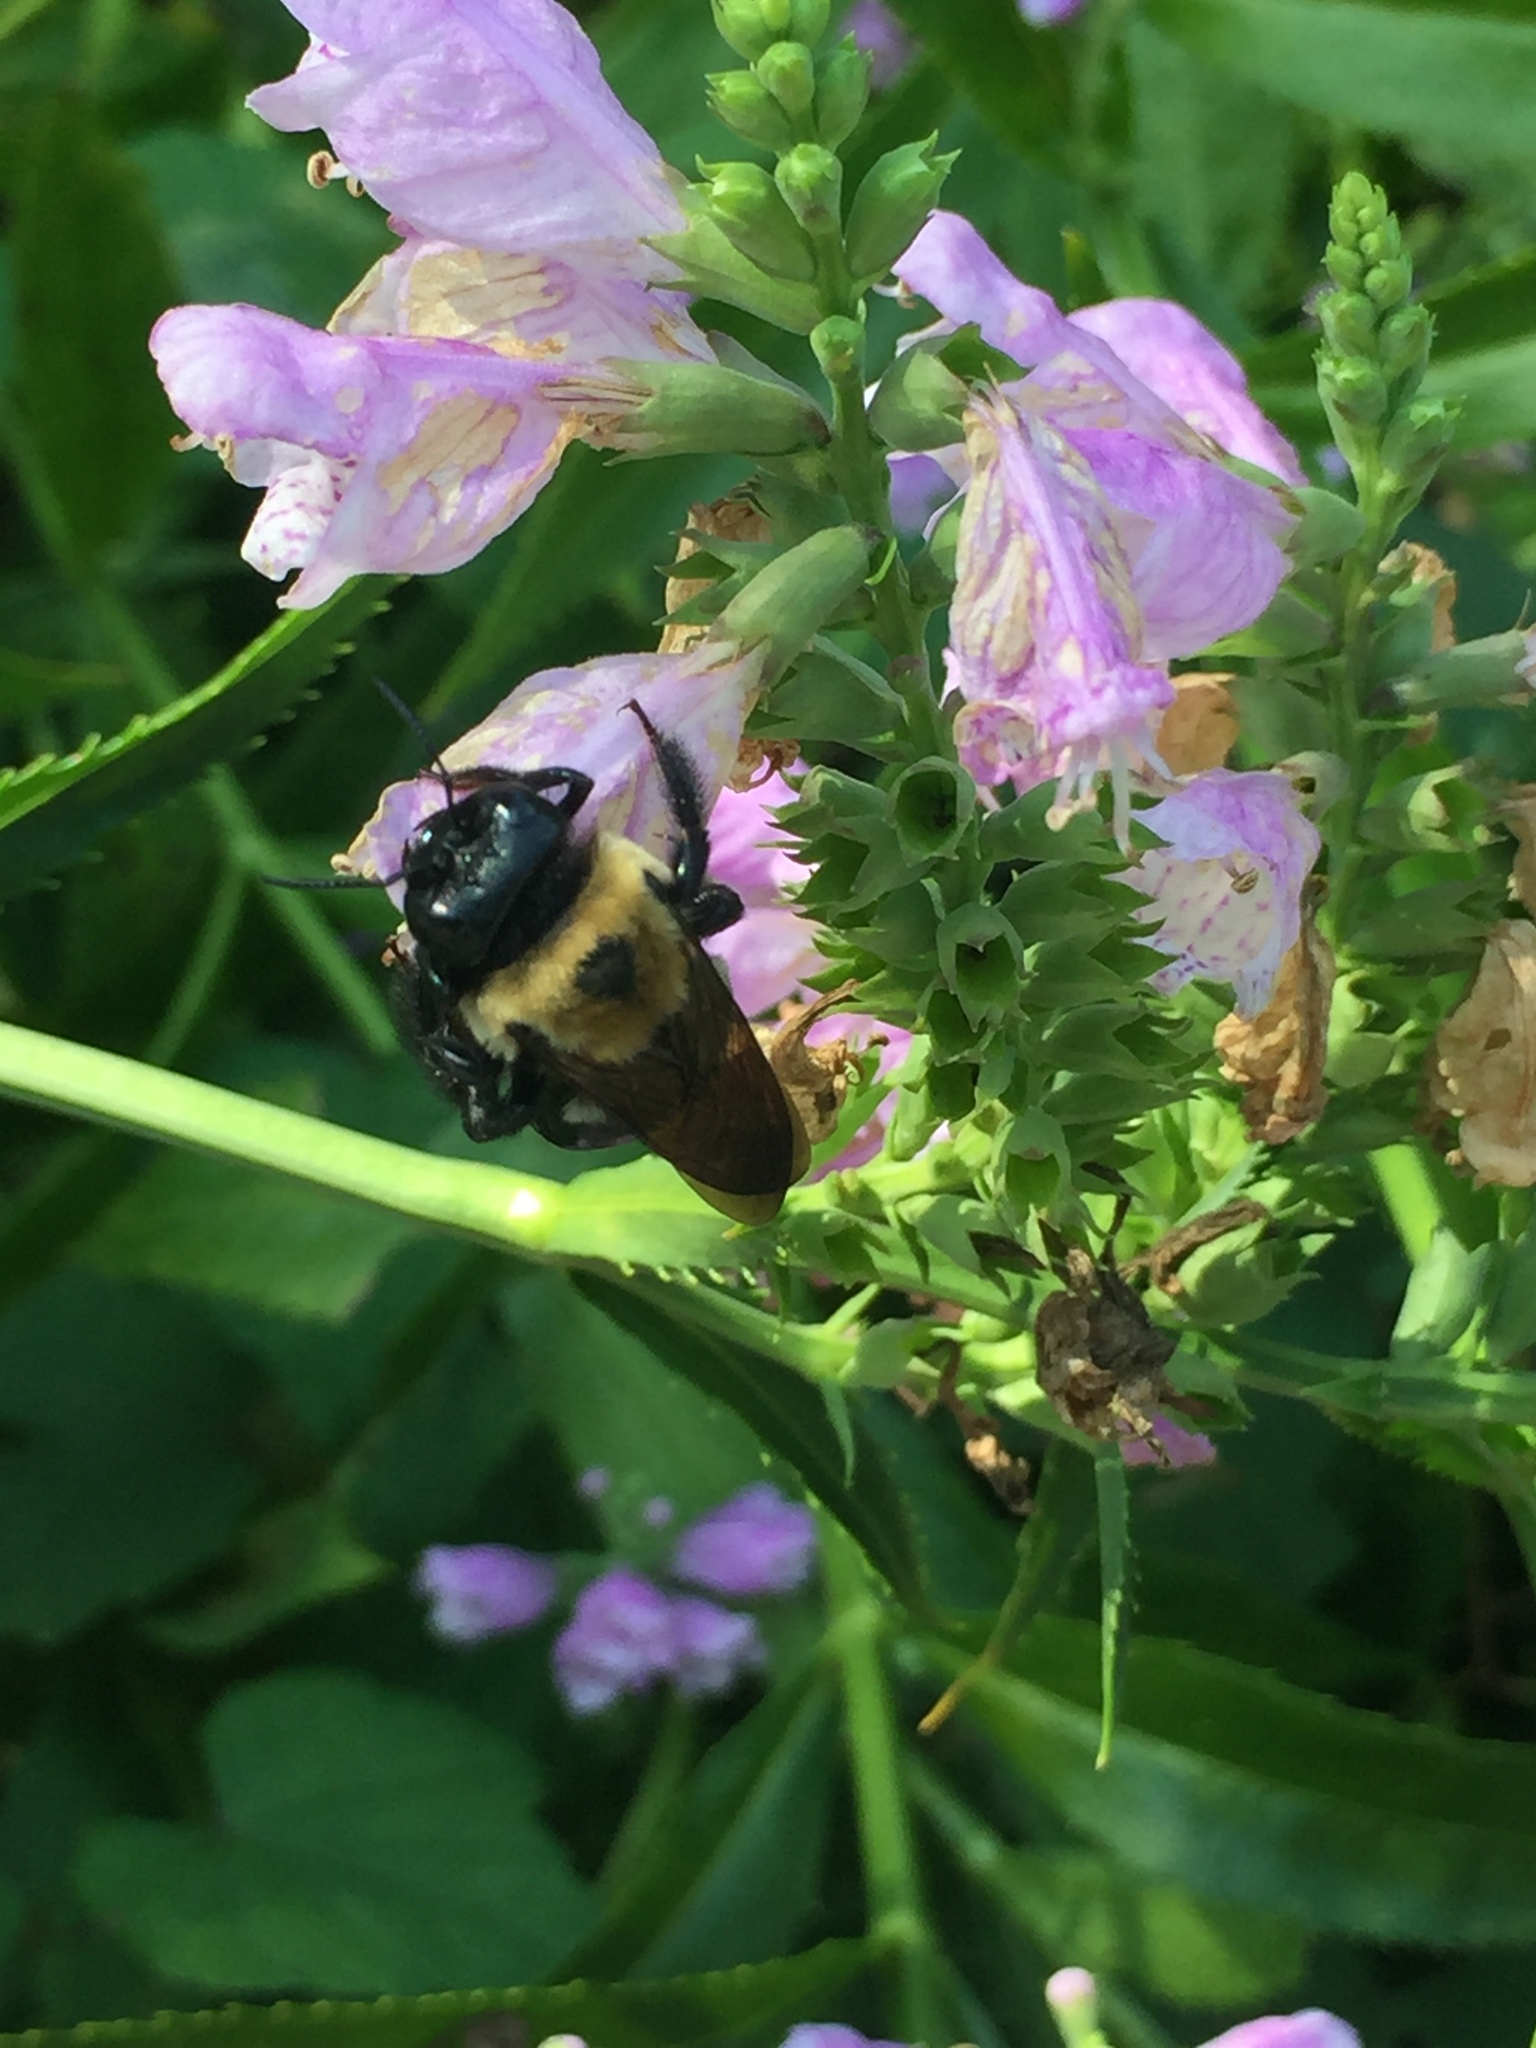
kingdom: Animalia
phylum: Arthropoda
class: Insecta
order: Hymenoptera
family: Apidae
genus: Xylocopa
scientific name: Xylocopa virginica
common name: Carpenter bee
